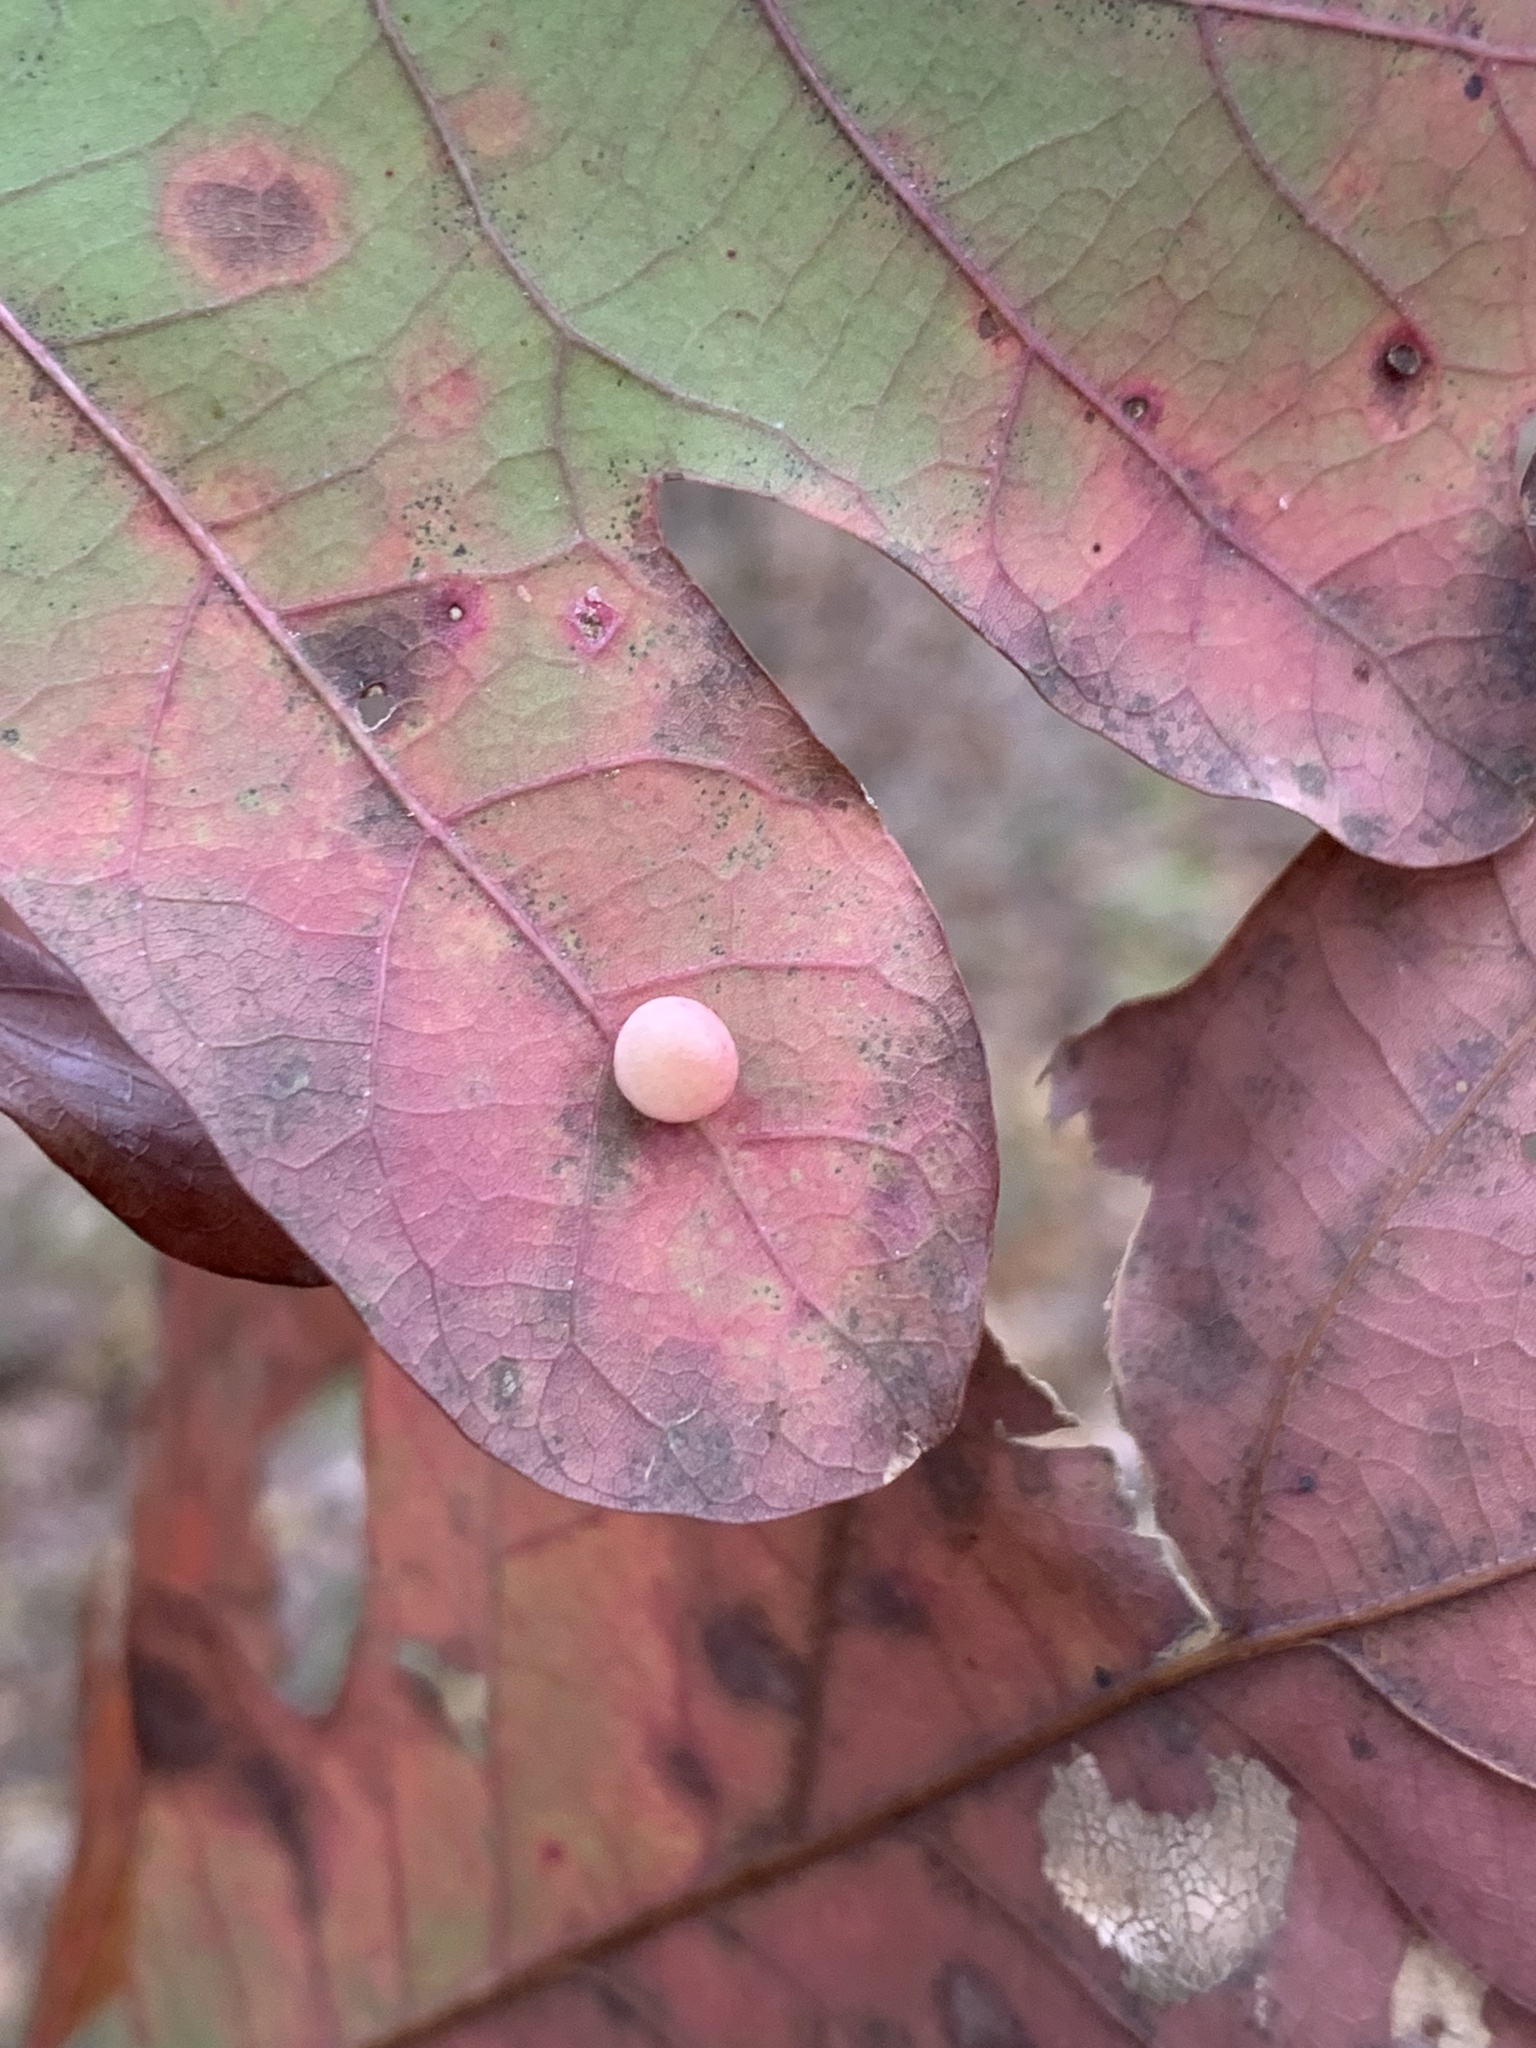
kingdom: Animalia
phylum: Arthropoda
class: Insecta
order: Hymenoptera
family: Cynipidae
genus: Phylloteras
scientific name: Phylloteras
